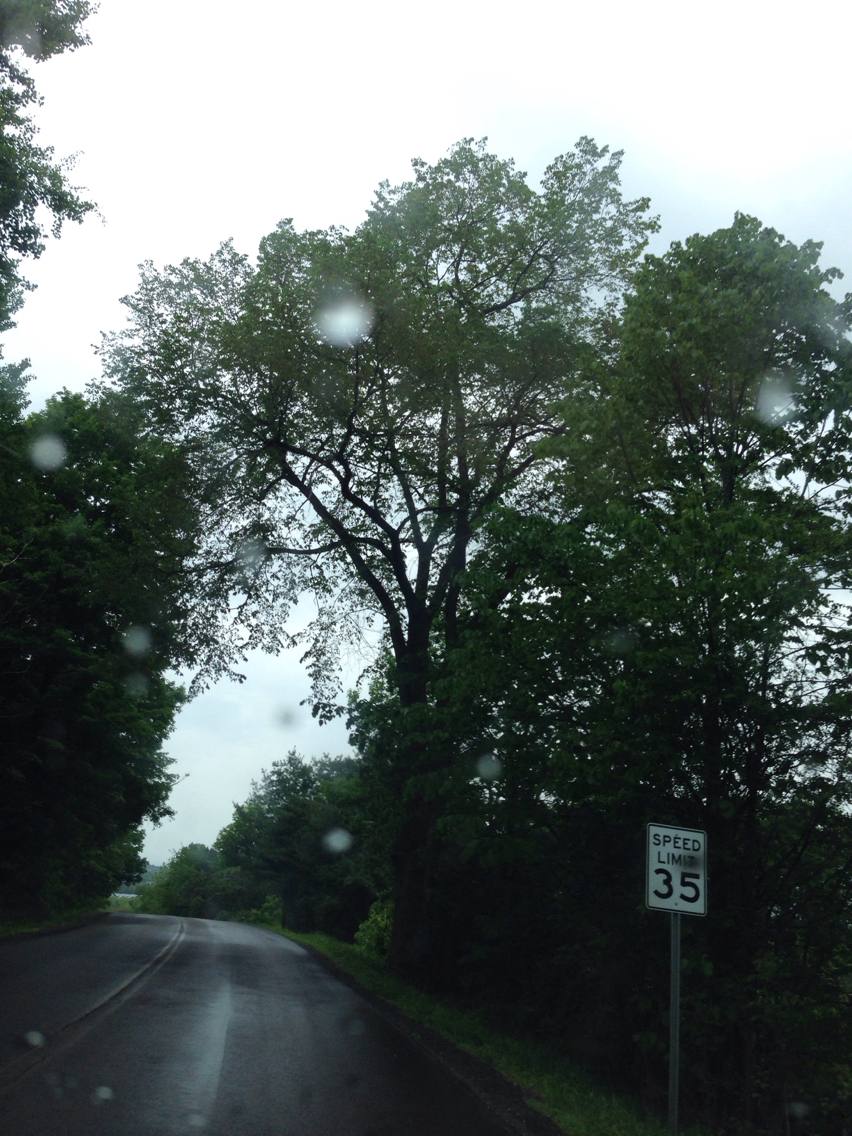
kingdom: Plantae
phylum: Tracheophyta
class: Magnoliopsida
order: Rosales
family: Ulmaceae
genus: Ulmus
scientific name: Ulmus americana
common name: American elm
